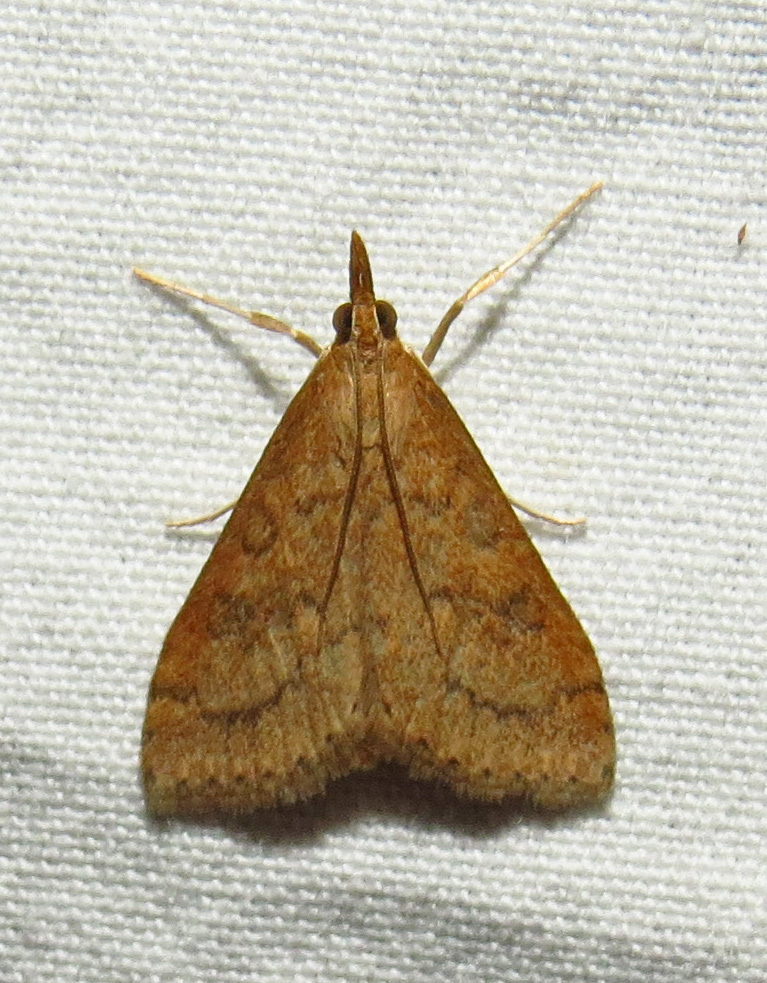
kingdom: Animalia
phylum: Arthropoda
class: Insecta
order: Lepidoptera
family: Crambidae
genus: Udea
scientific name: Udea rubigalis
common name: Celery leaftier moth
